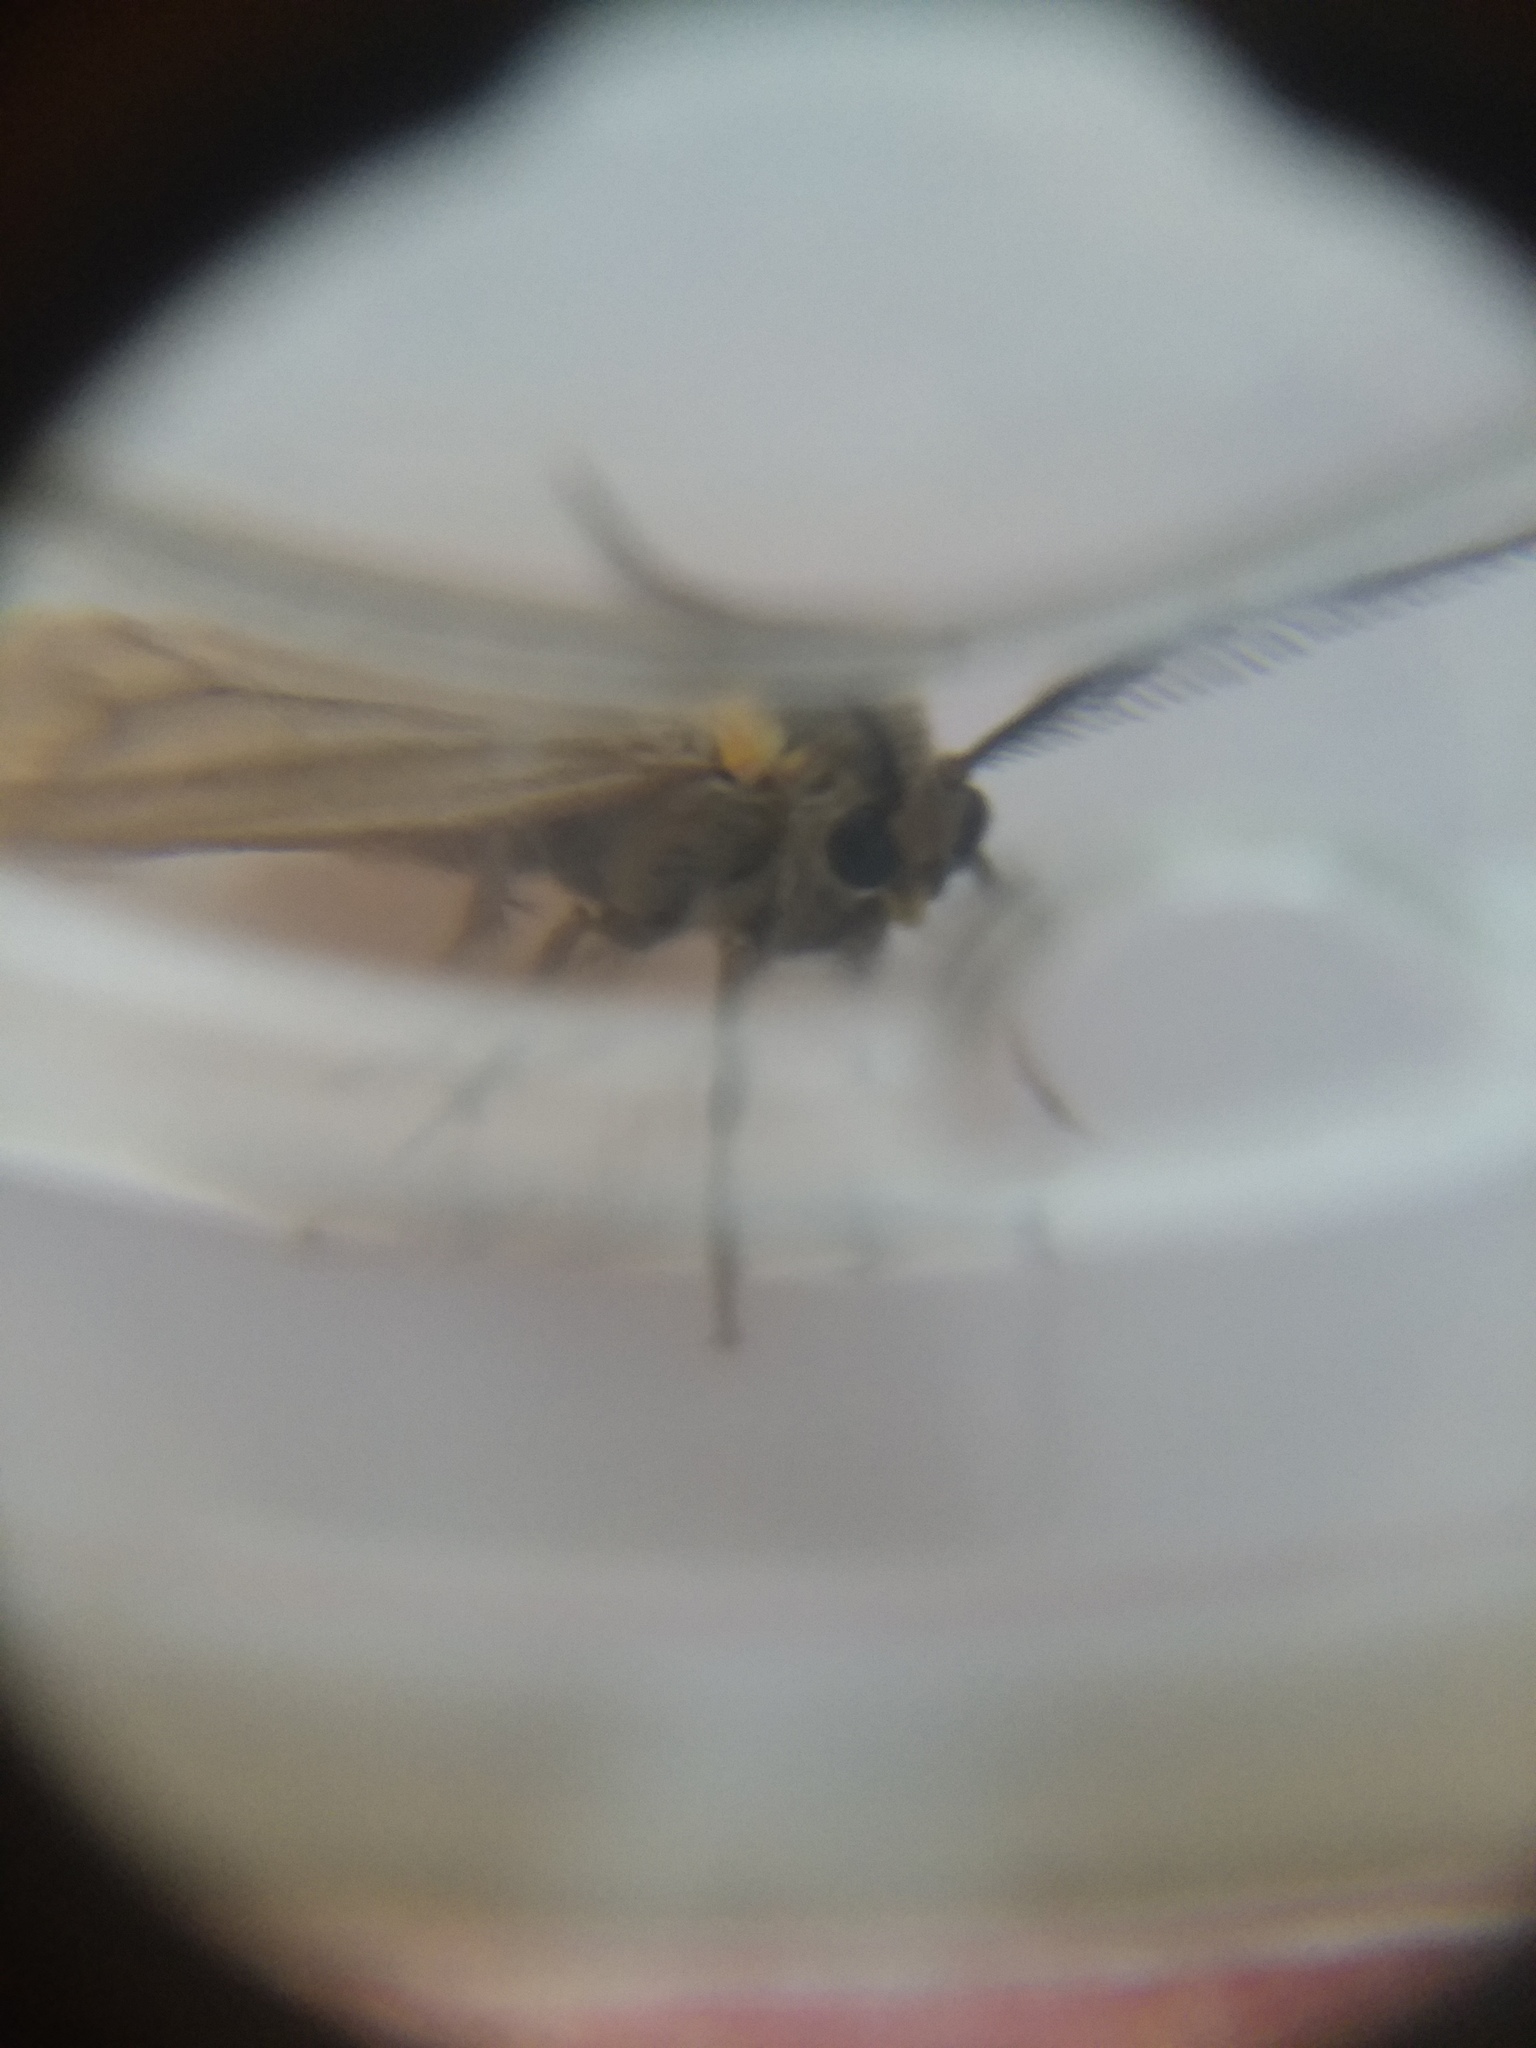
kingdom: Animalia
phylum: Arthropoda
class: Insecta
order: Lepidoptera
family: Notodontidae
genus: Phryganidia
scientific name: Phryganidia californica
